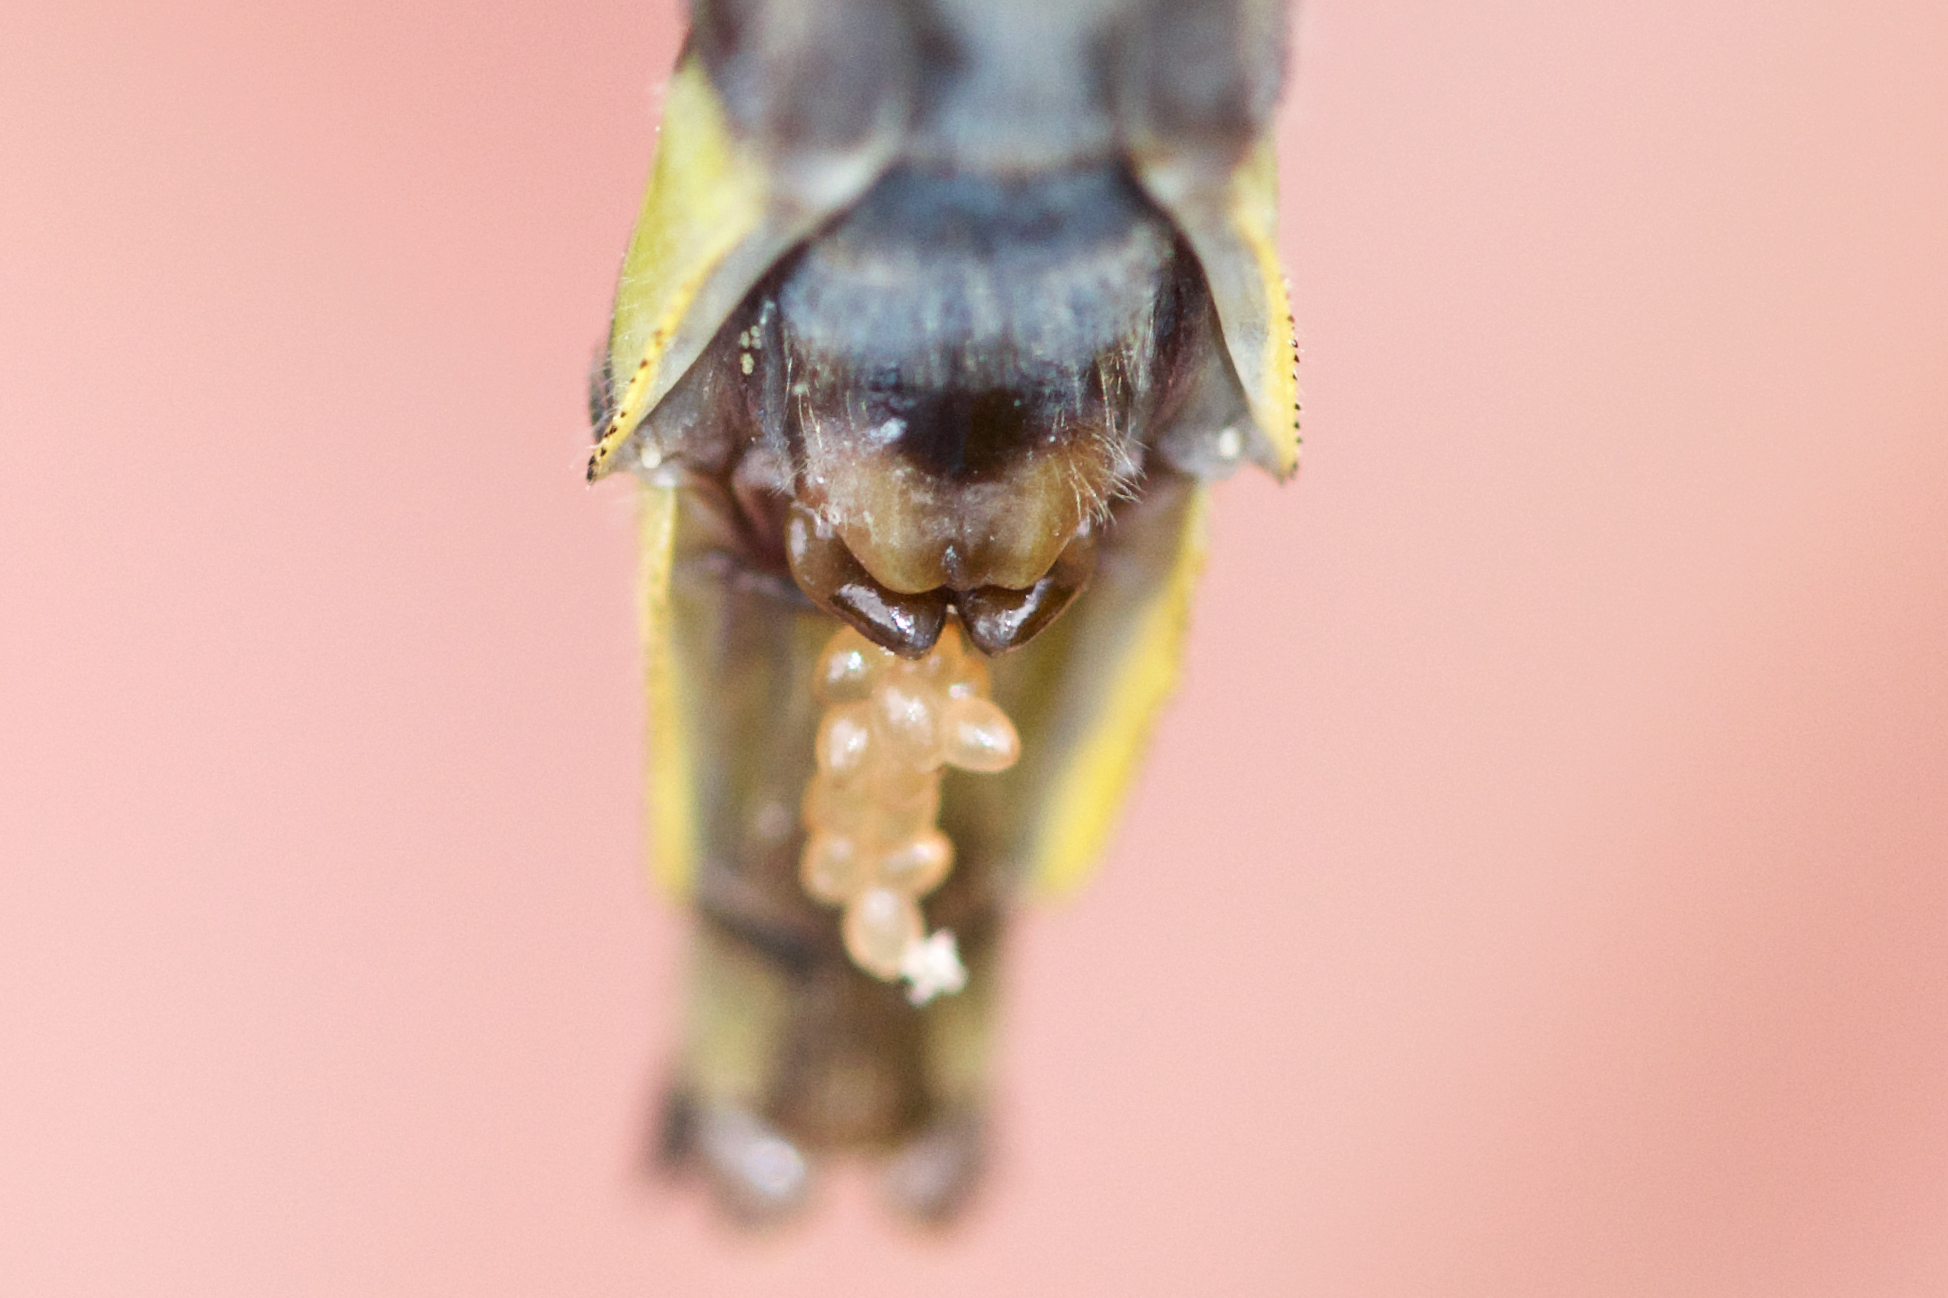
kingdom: Animalia
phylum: Arthropoda
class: Insecta
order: Odonata
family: Gomphidae
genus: Phanogomphus
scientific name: Phanogomphus quadricolor
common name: Rapids clubtail
